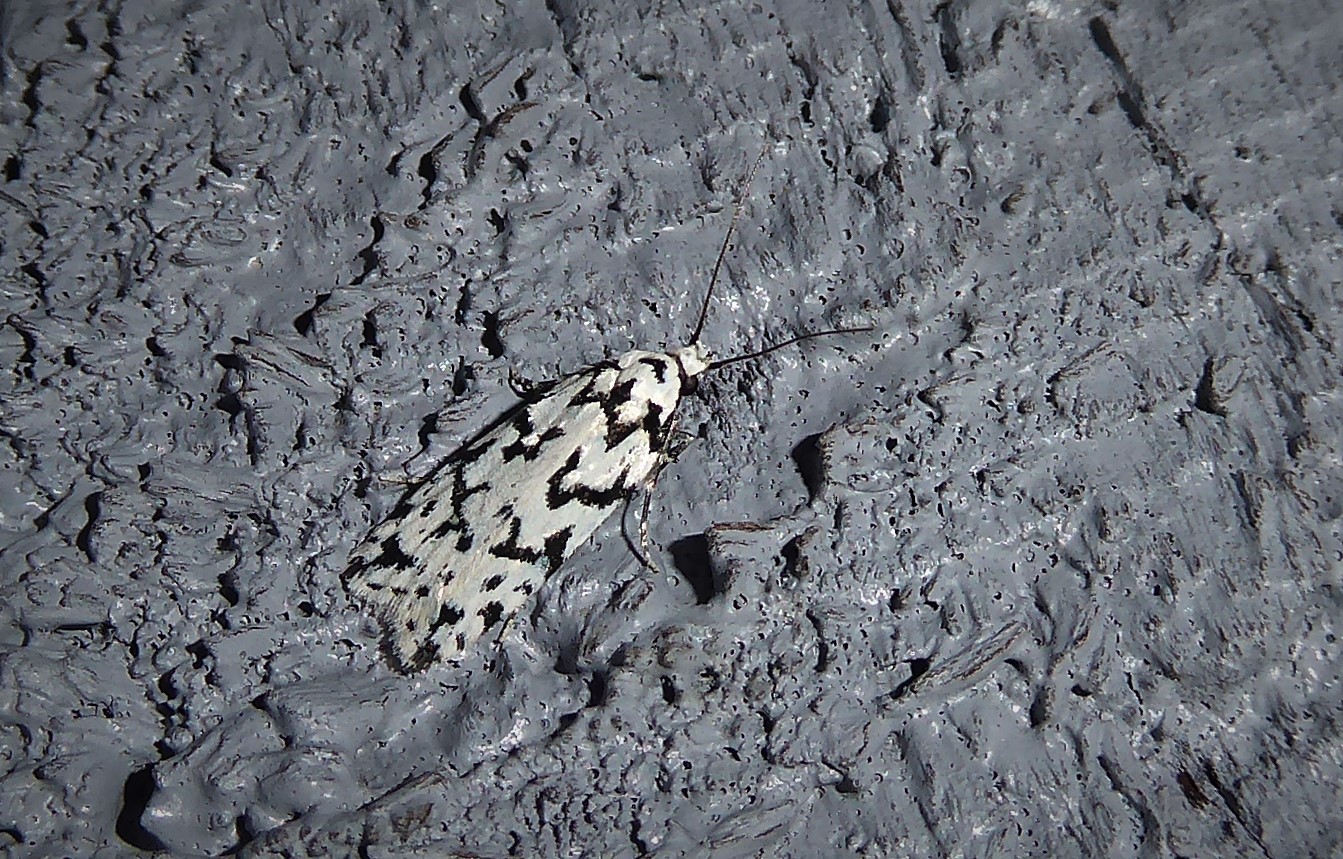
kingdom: Animalia
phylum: Arthropoda
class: Insecta
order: Lepidoptera
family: Oecophoridae
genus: Izatha
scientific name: Izatha katadiktya
